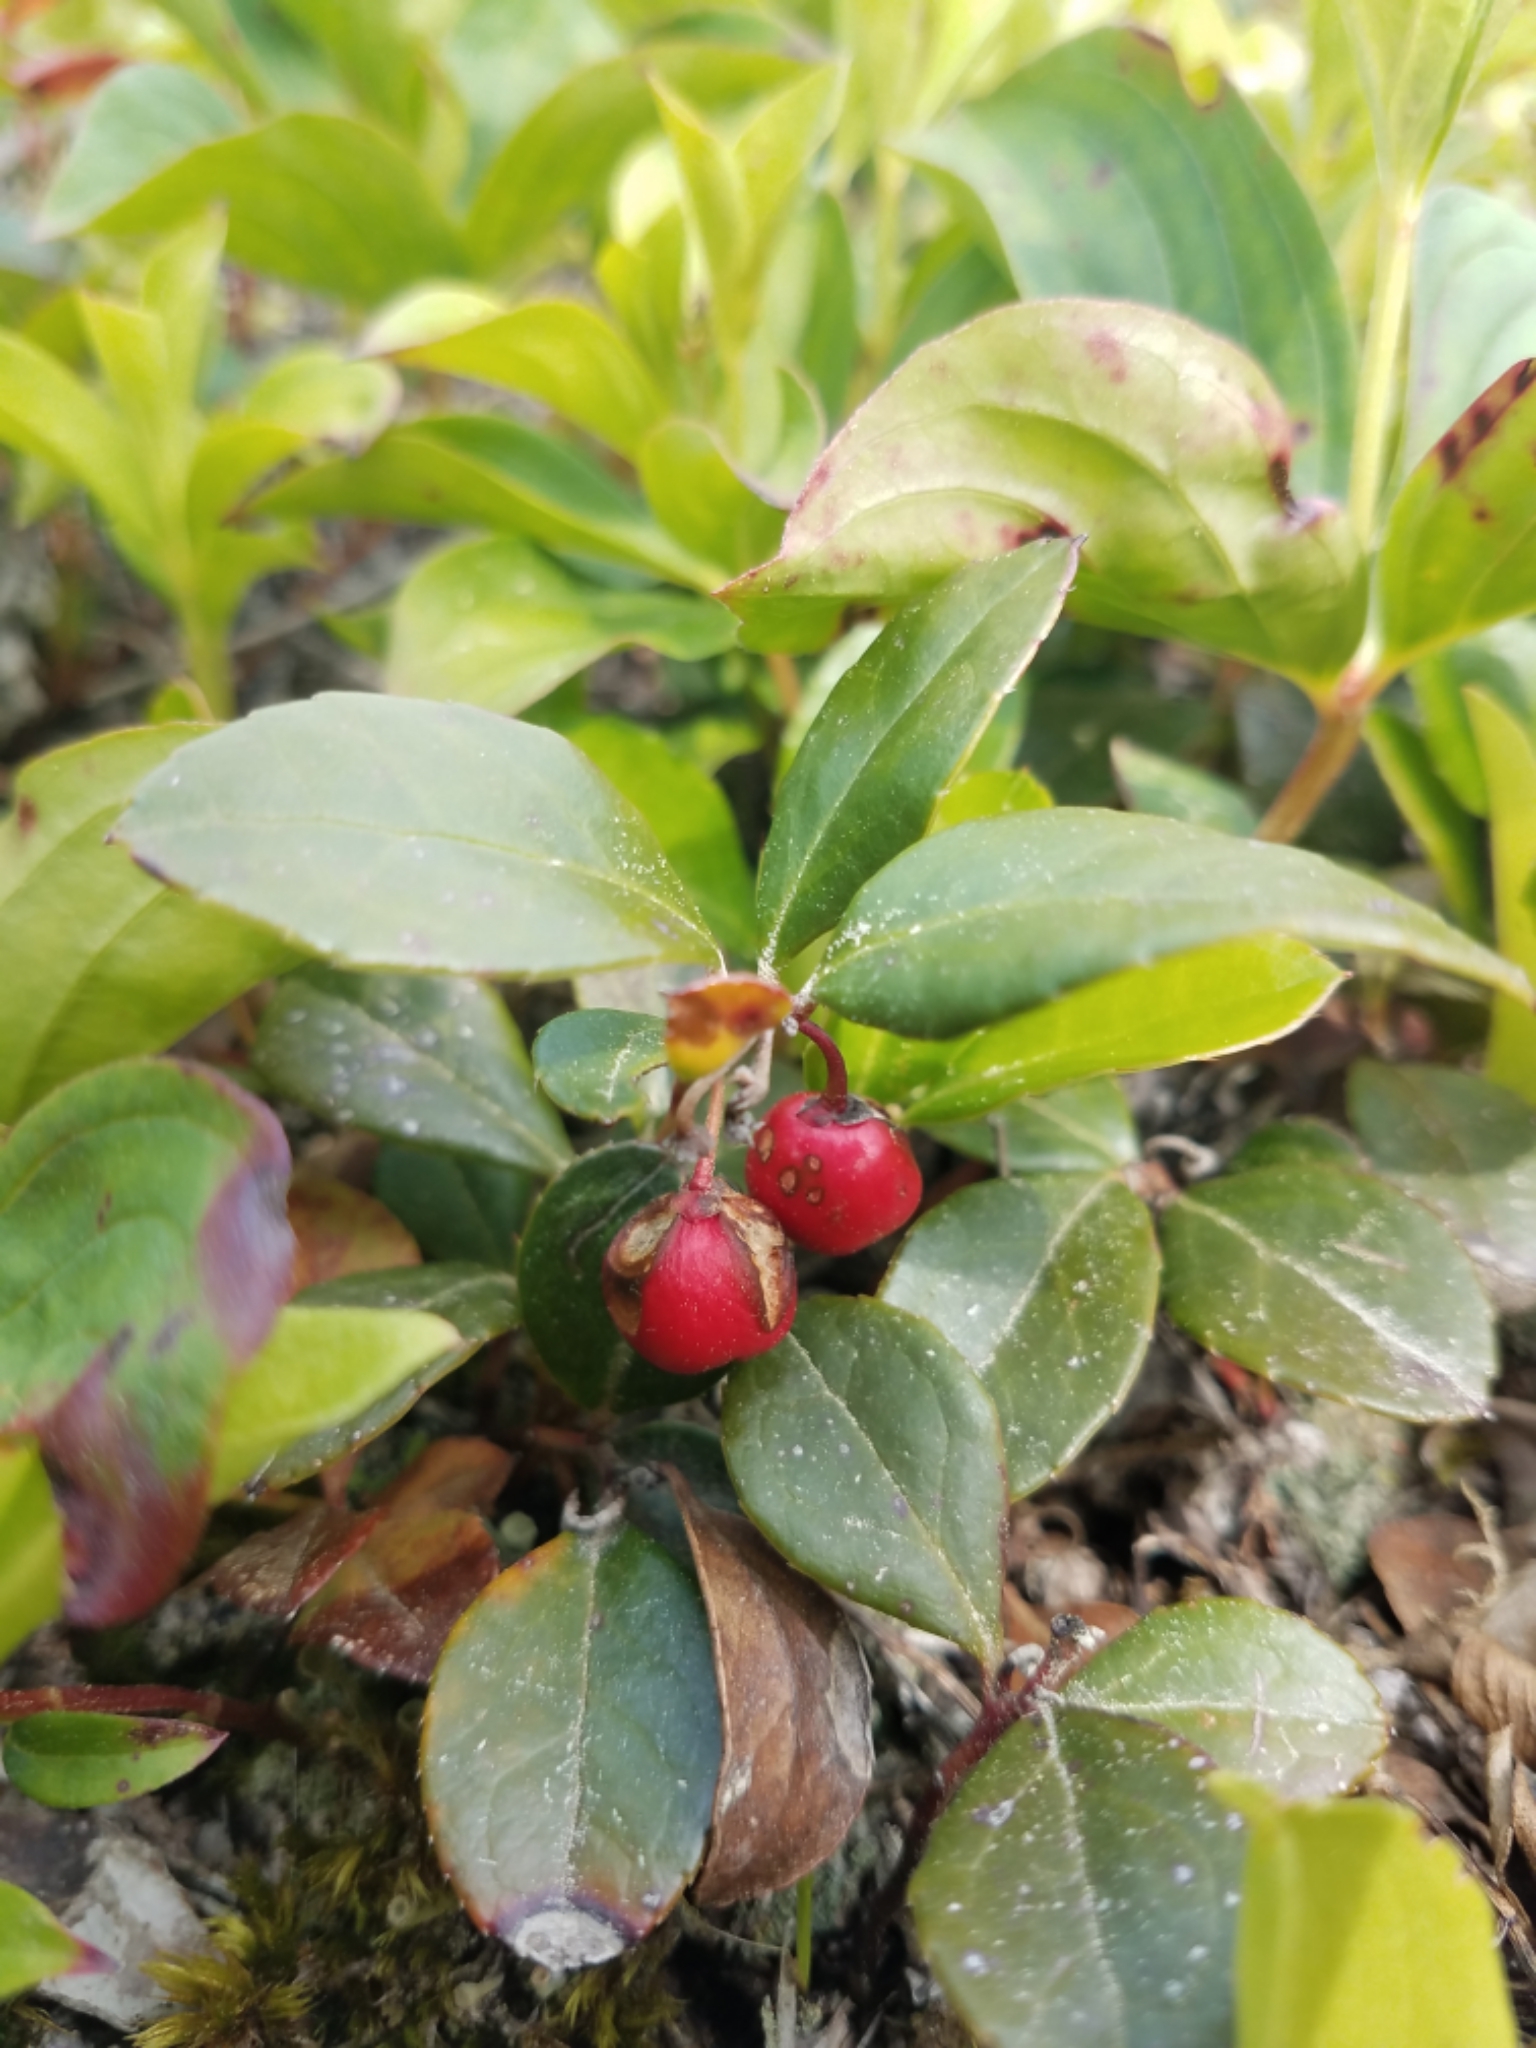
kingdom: Plantae
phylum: Tracheophyta
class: Magnoliopsida
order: Ericales
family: Ericaceae
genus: Gaultheria
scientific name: Gaultheria procumbens
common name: Checkerberry
